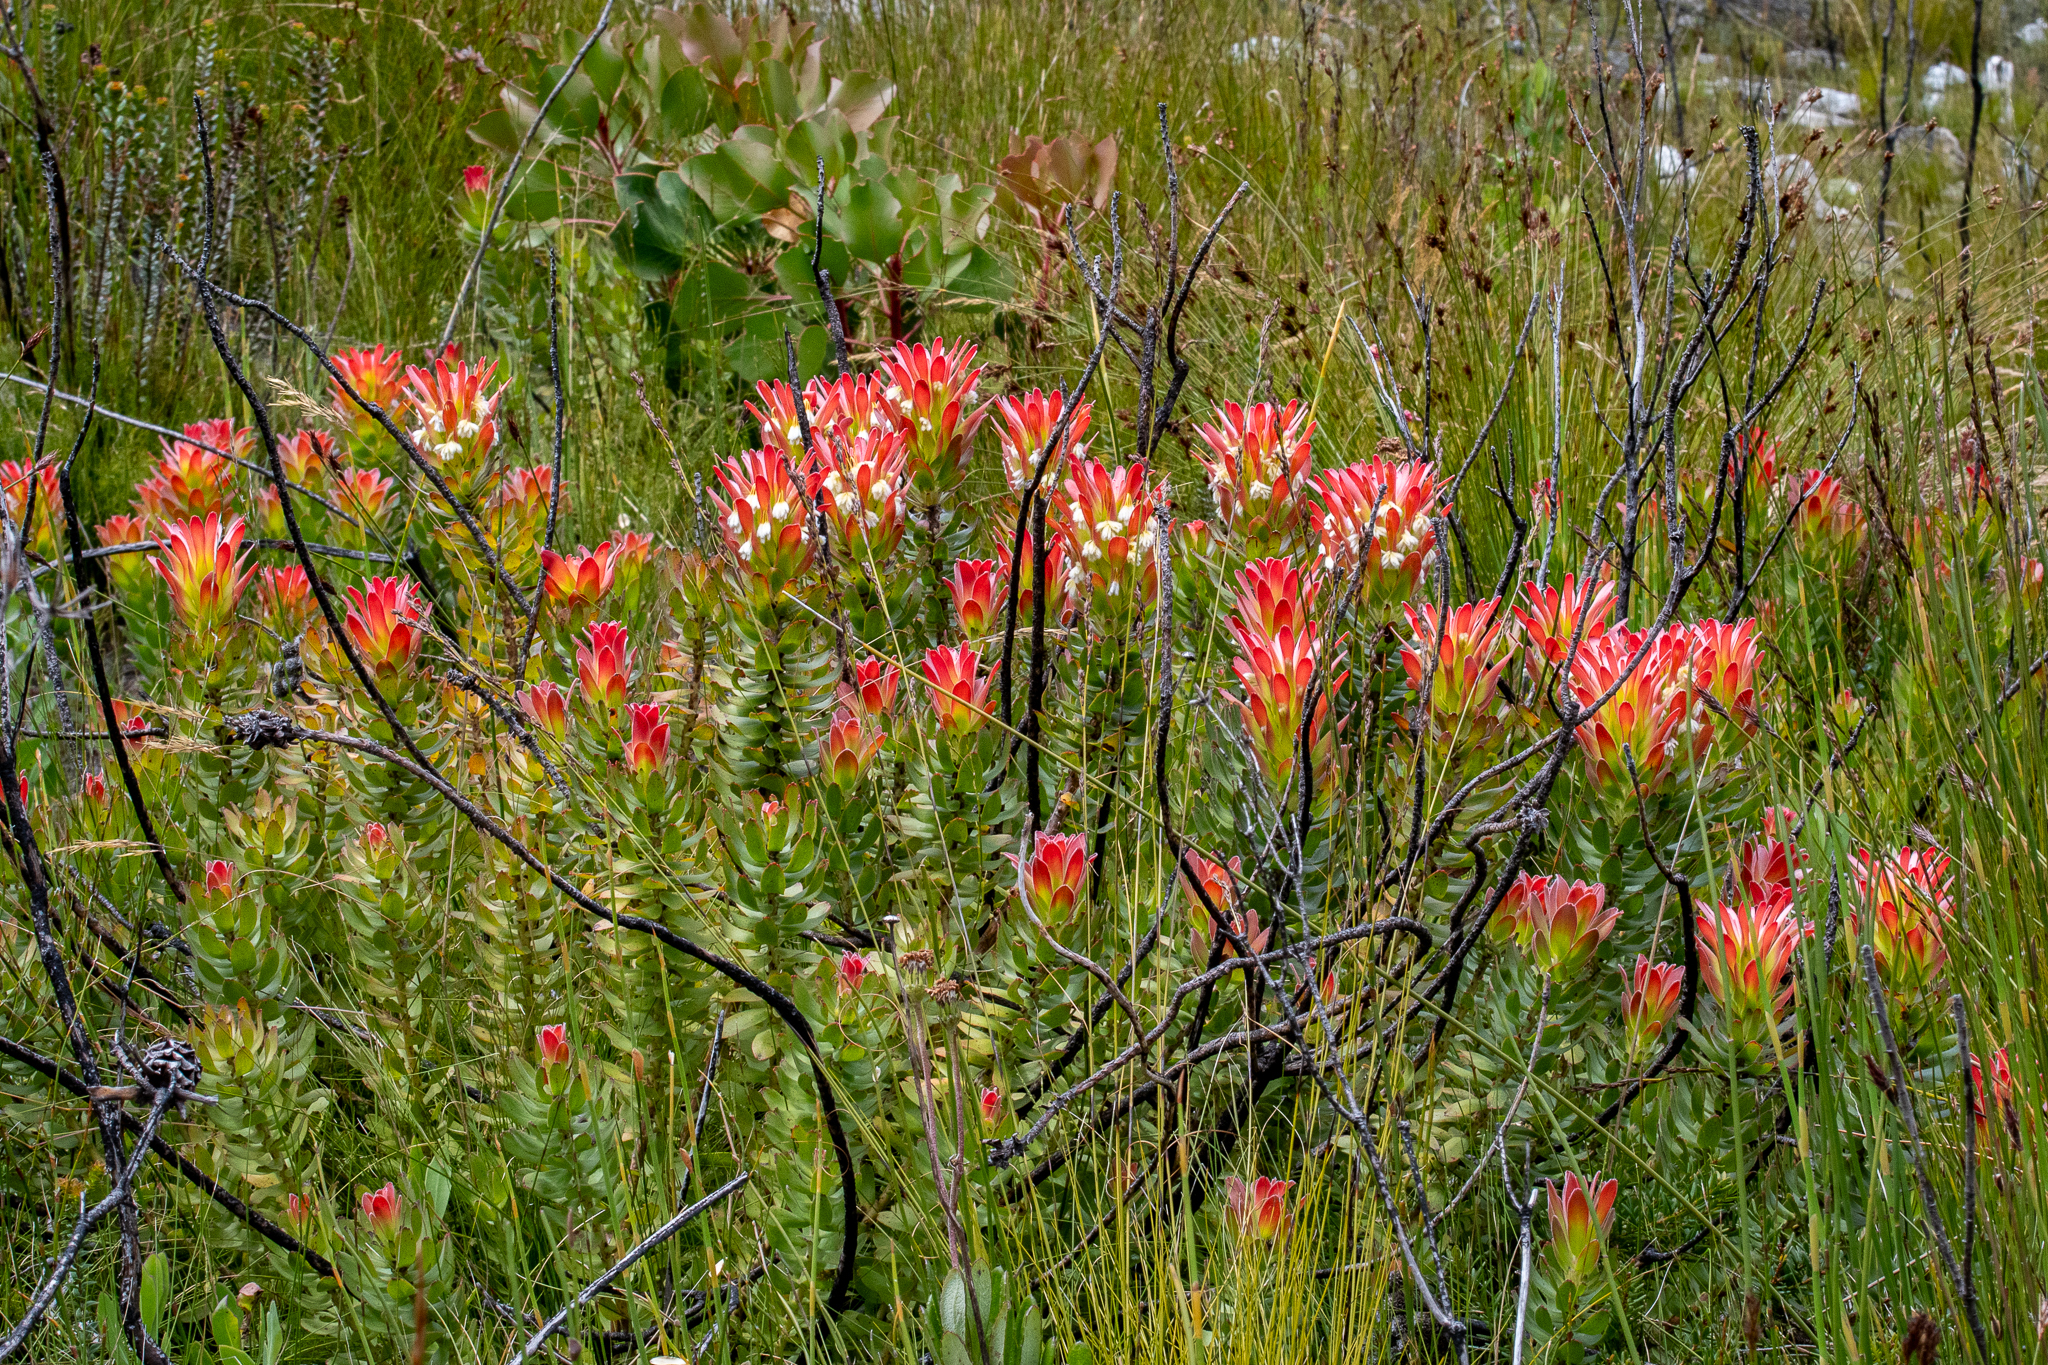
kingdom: Plantae
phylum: Tracheophyta
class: Magnoliopsida
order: Proteales
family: Proteaceae
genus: Mimetes
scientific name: Mimetes cucullatus
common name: Common pagoda
